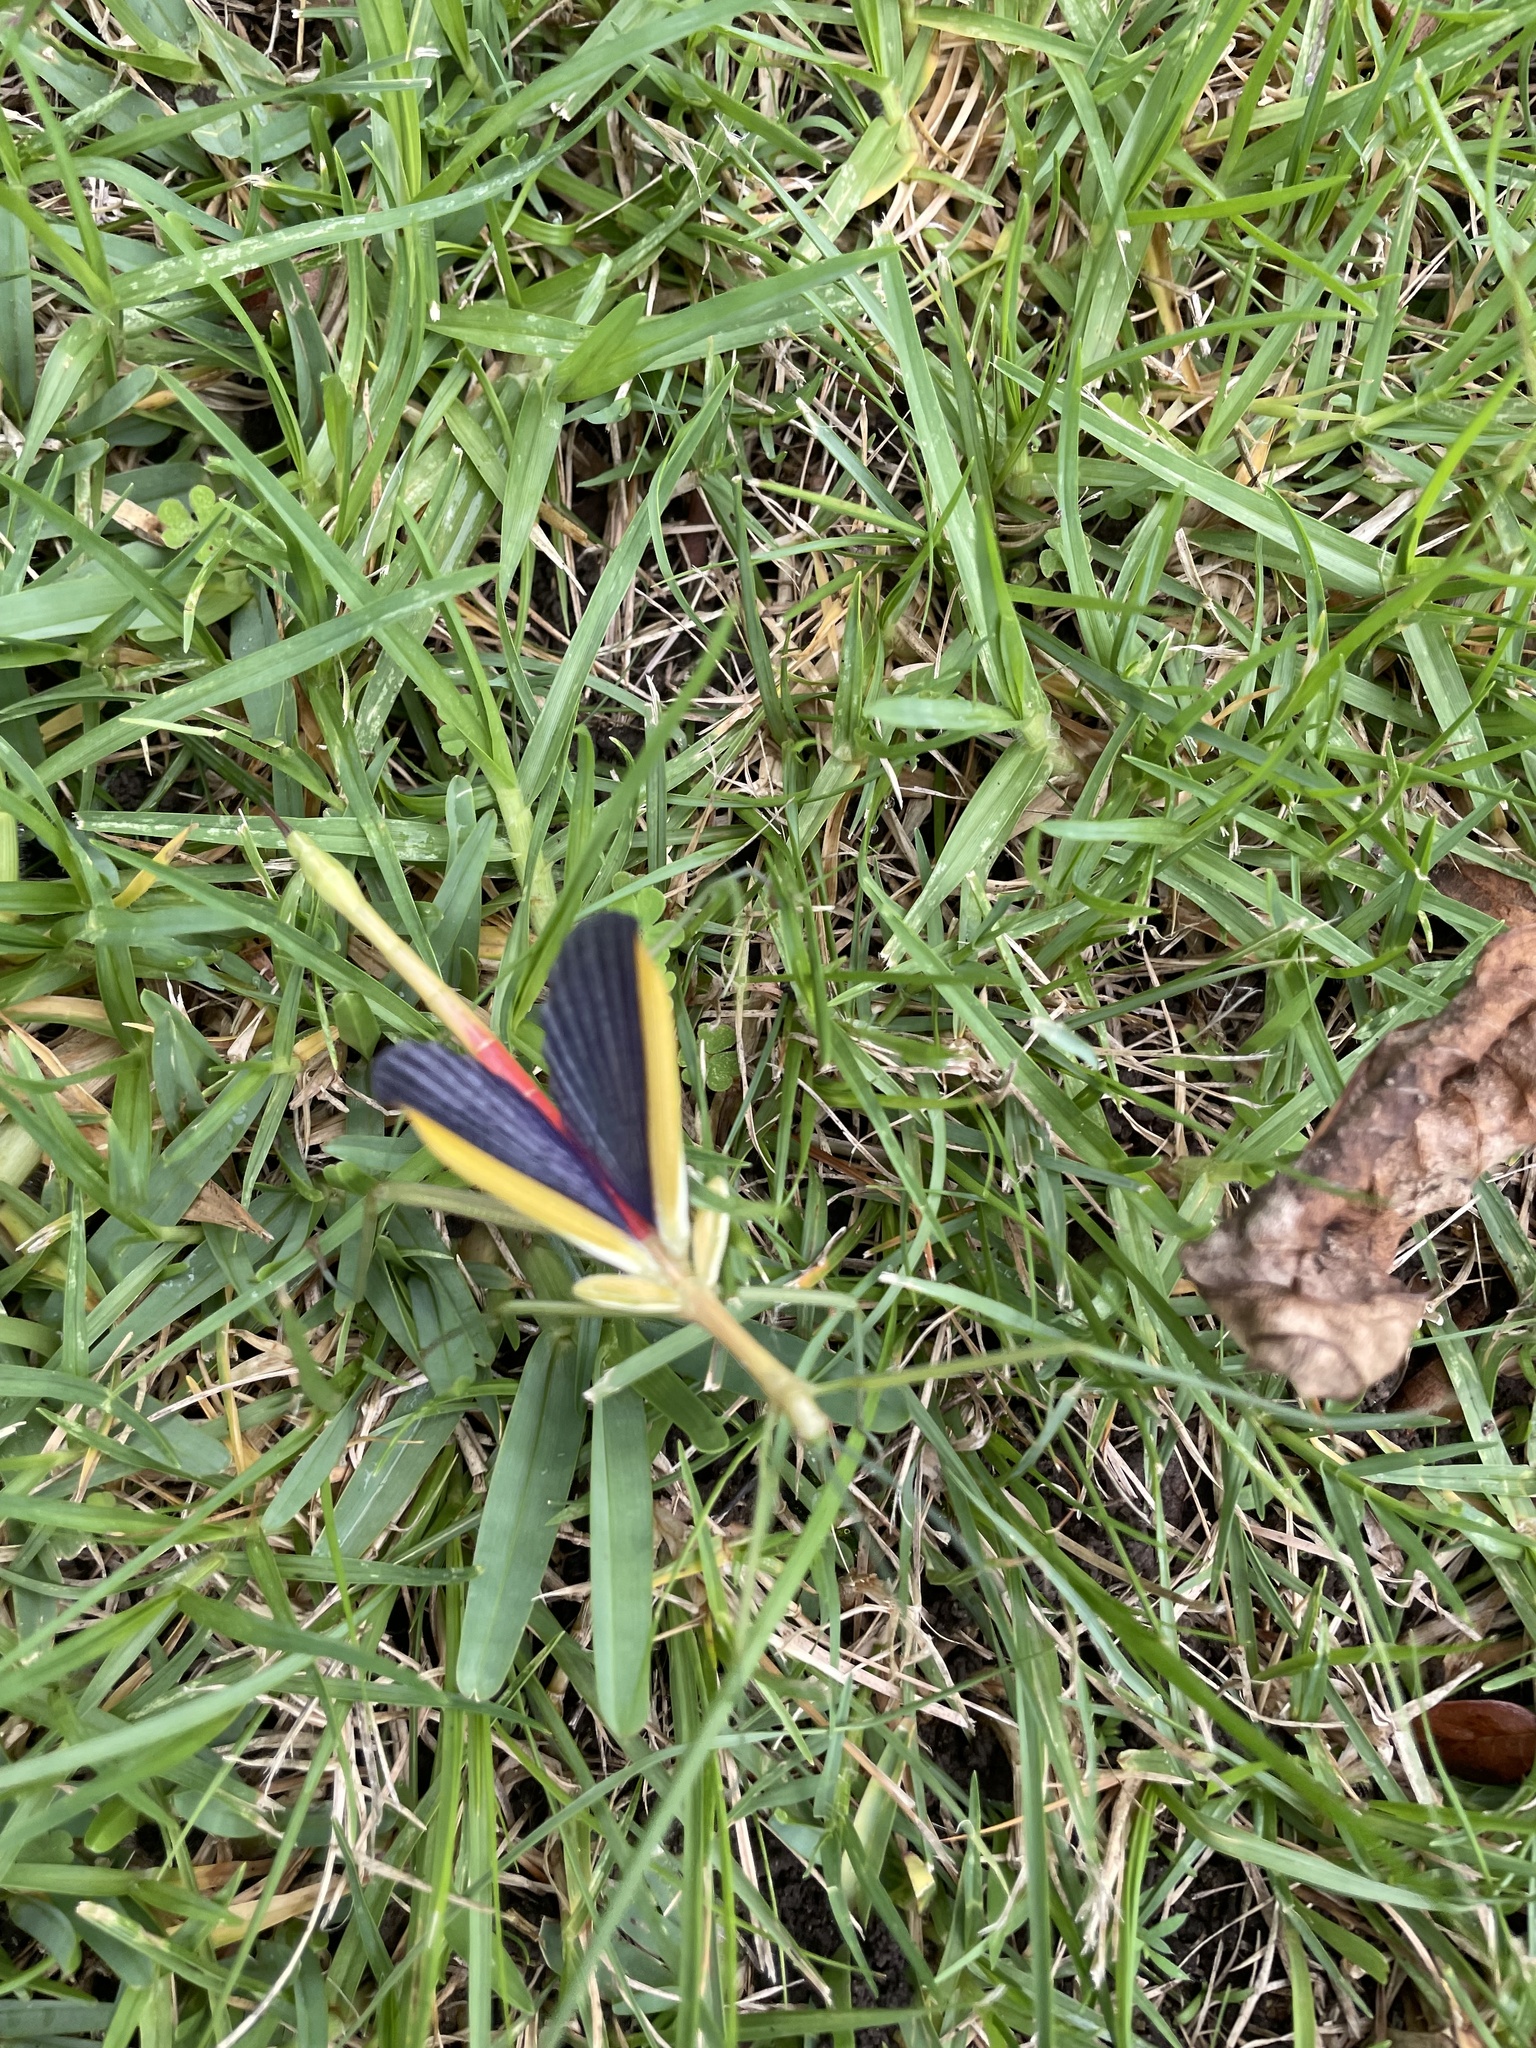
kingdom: Animalia
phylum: Arthropoda
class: Insecta
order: Phasmida
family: Phasmatidae
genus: Didymuria
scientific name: Didymuria violescens
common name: Spur-legged stick-insect
